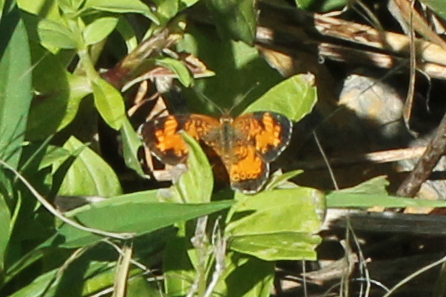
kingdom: Animalia
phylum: Arthropoda
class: Insecta
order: Lepidoptera
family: Nymphalidae
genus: Phyciodes
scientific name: Phyciodes tharos
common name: Pearl crescent
